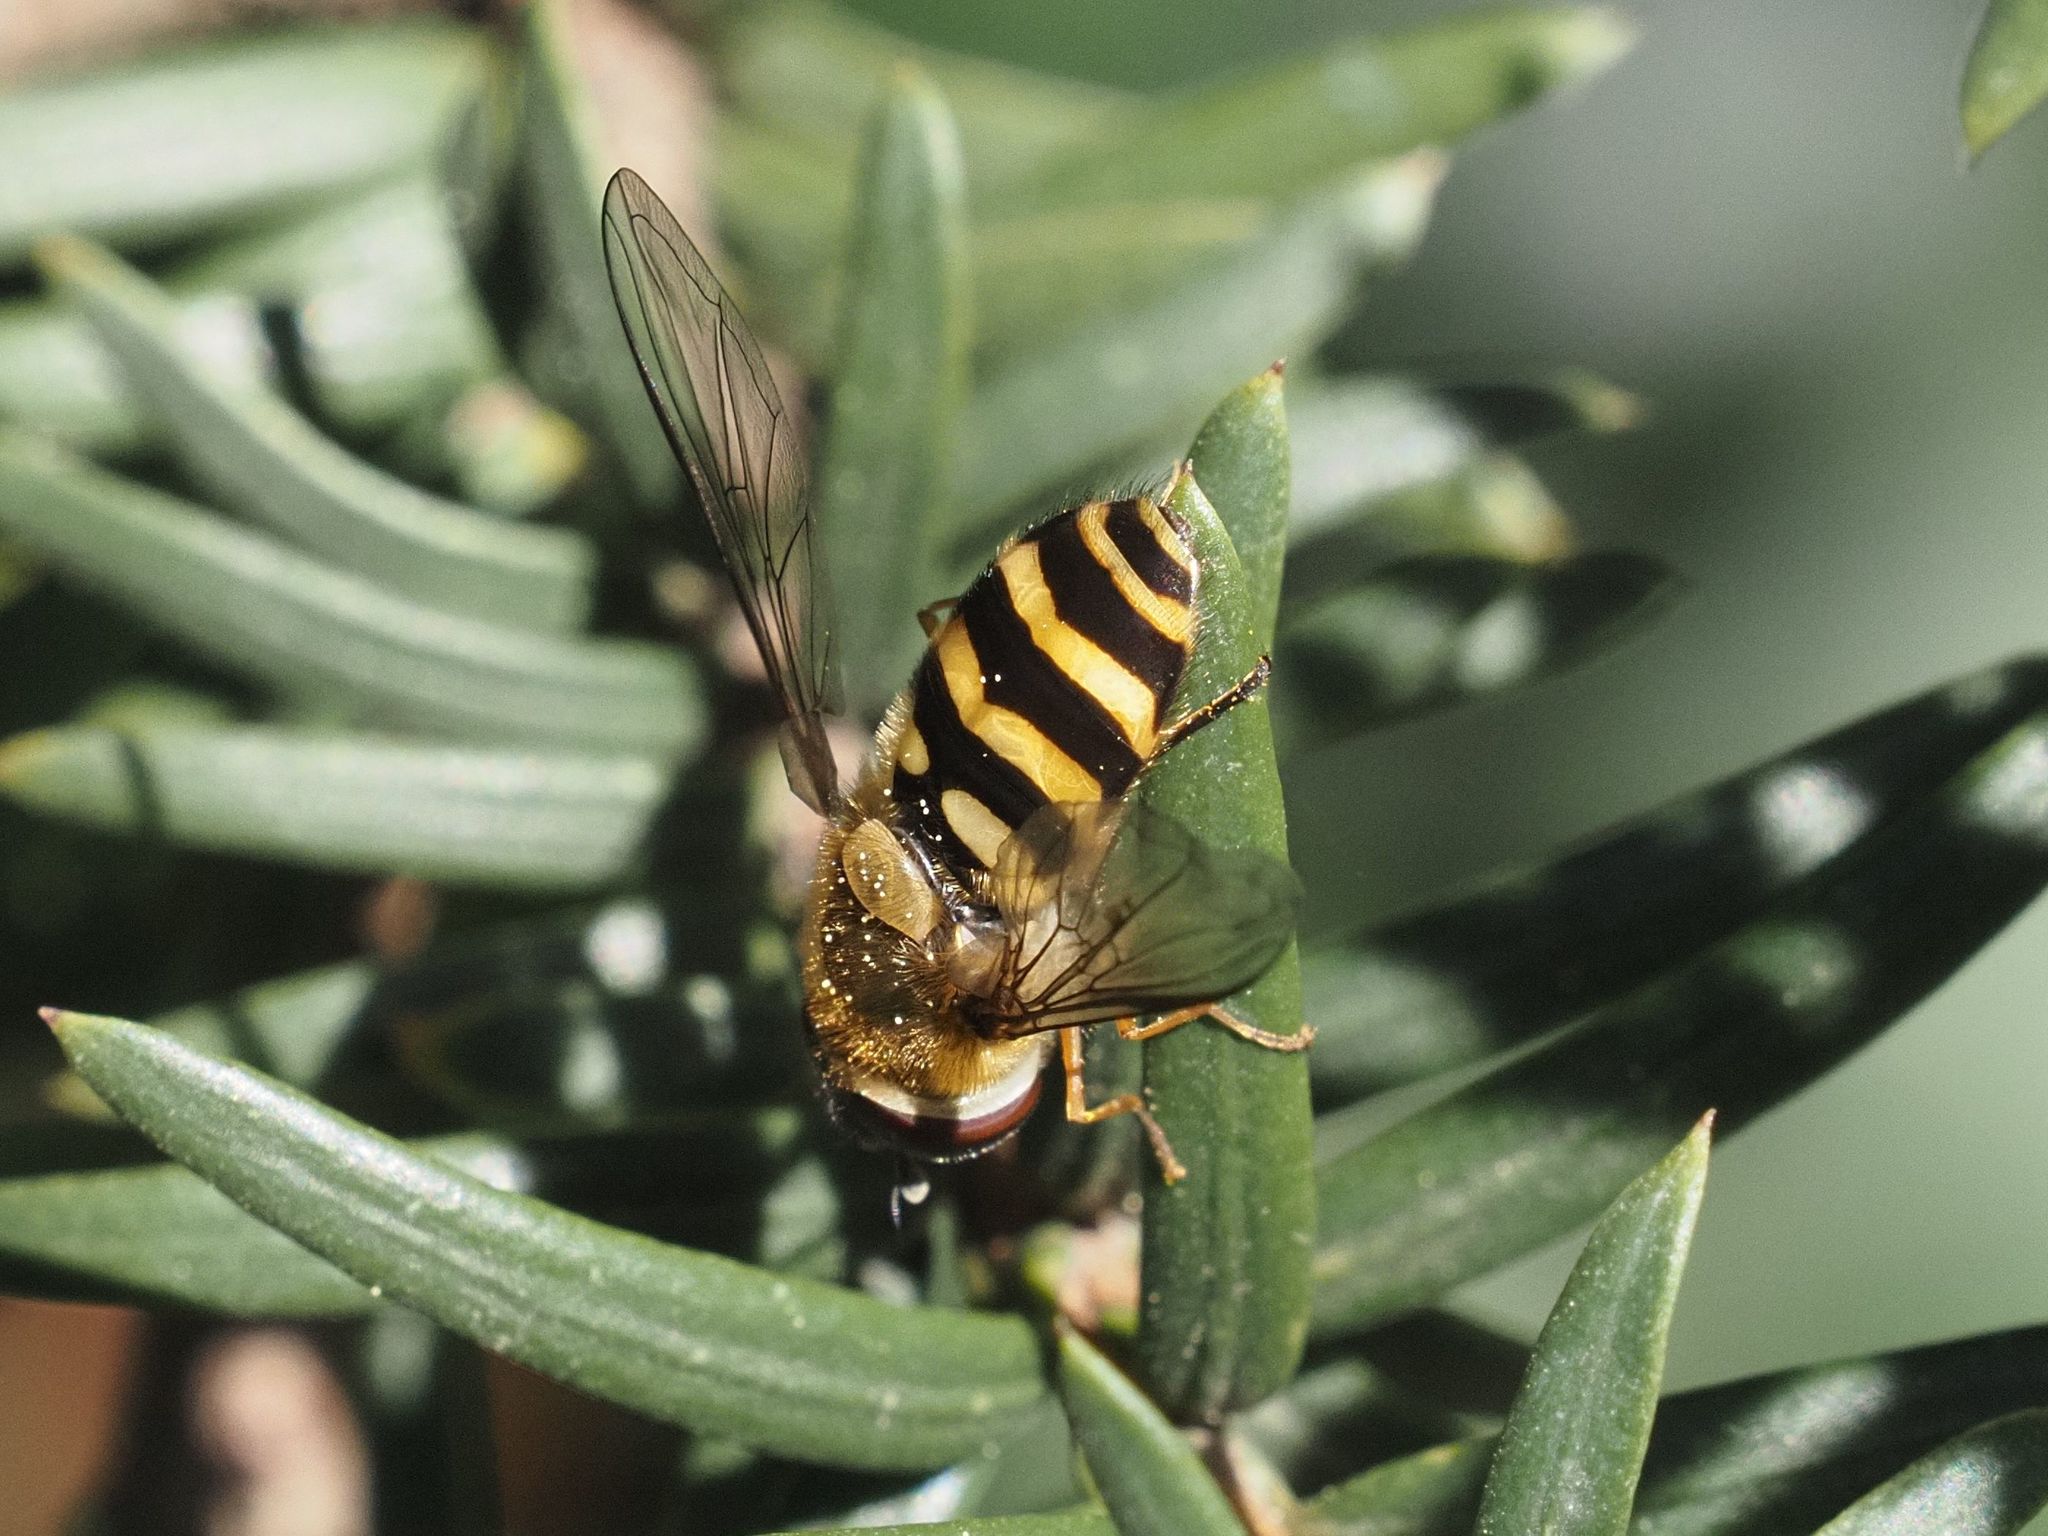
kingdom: Animalia
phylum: Arthropoda
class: Insecta
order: Diptera
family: Syrphidae
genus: Syrphus
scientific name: Syrphus torvus
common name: Hairy-eyed flower fly
